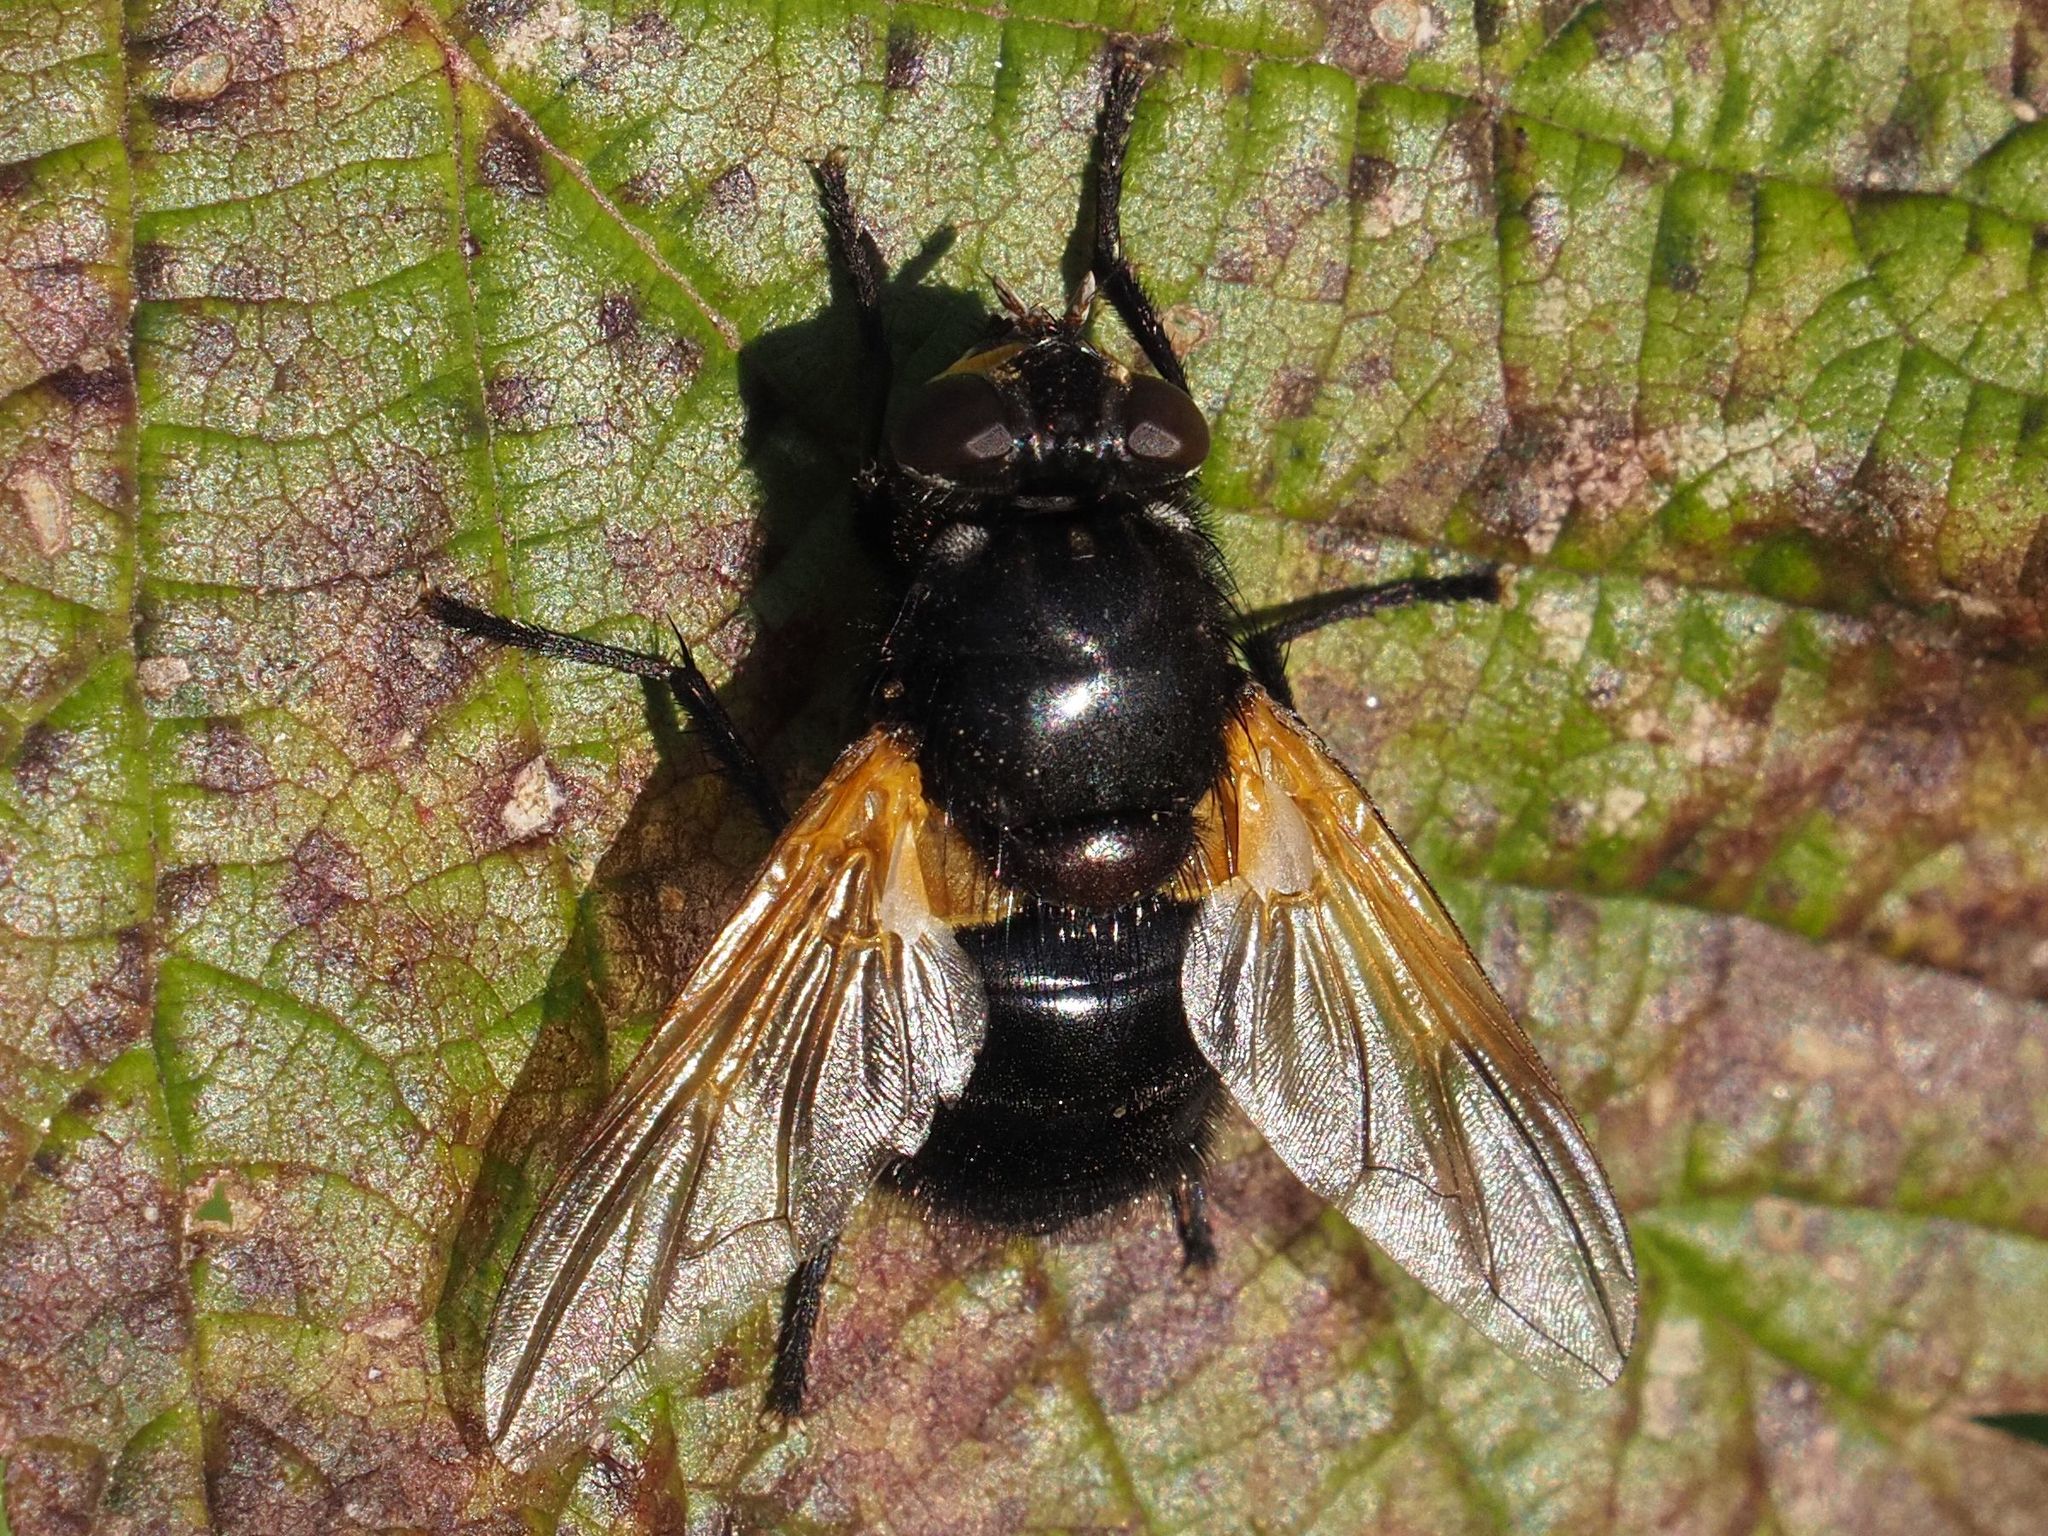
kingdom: Animalia
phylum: Arthropoda
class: Insecta
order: Diptera
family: Muscidae
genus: Mesembrina
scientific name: Mesembrina meridiana
